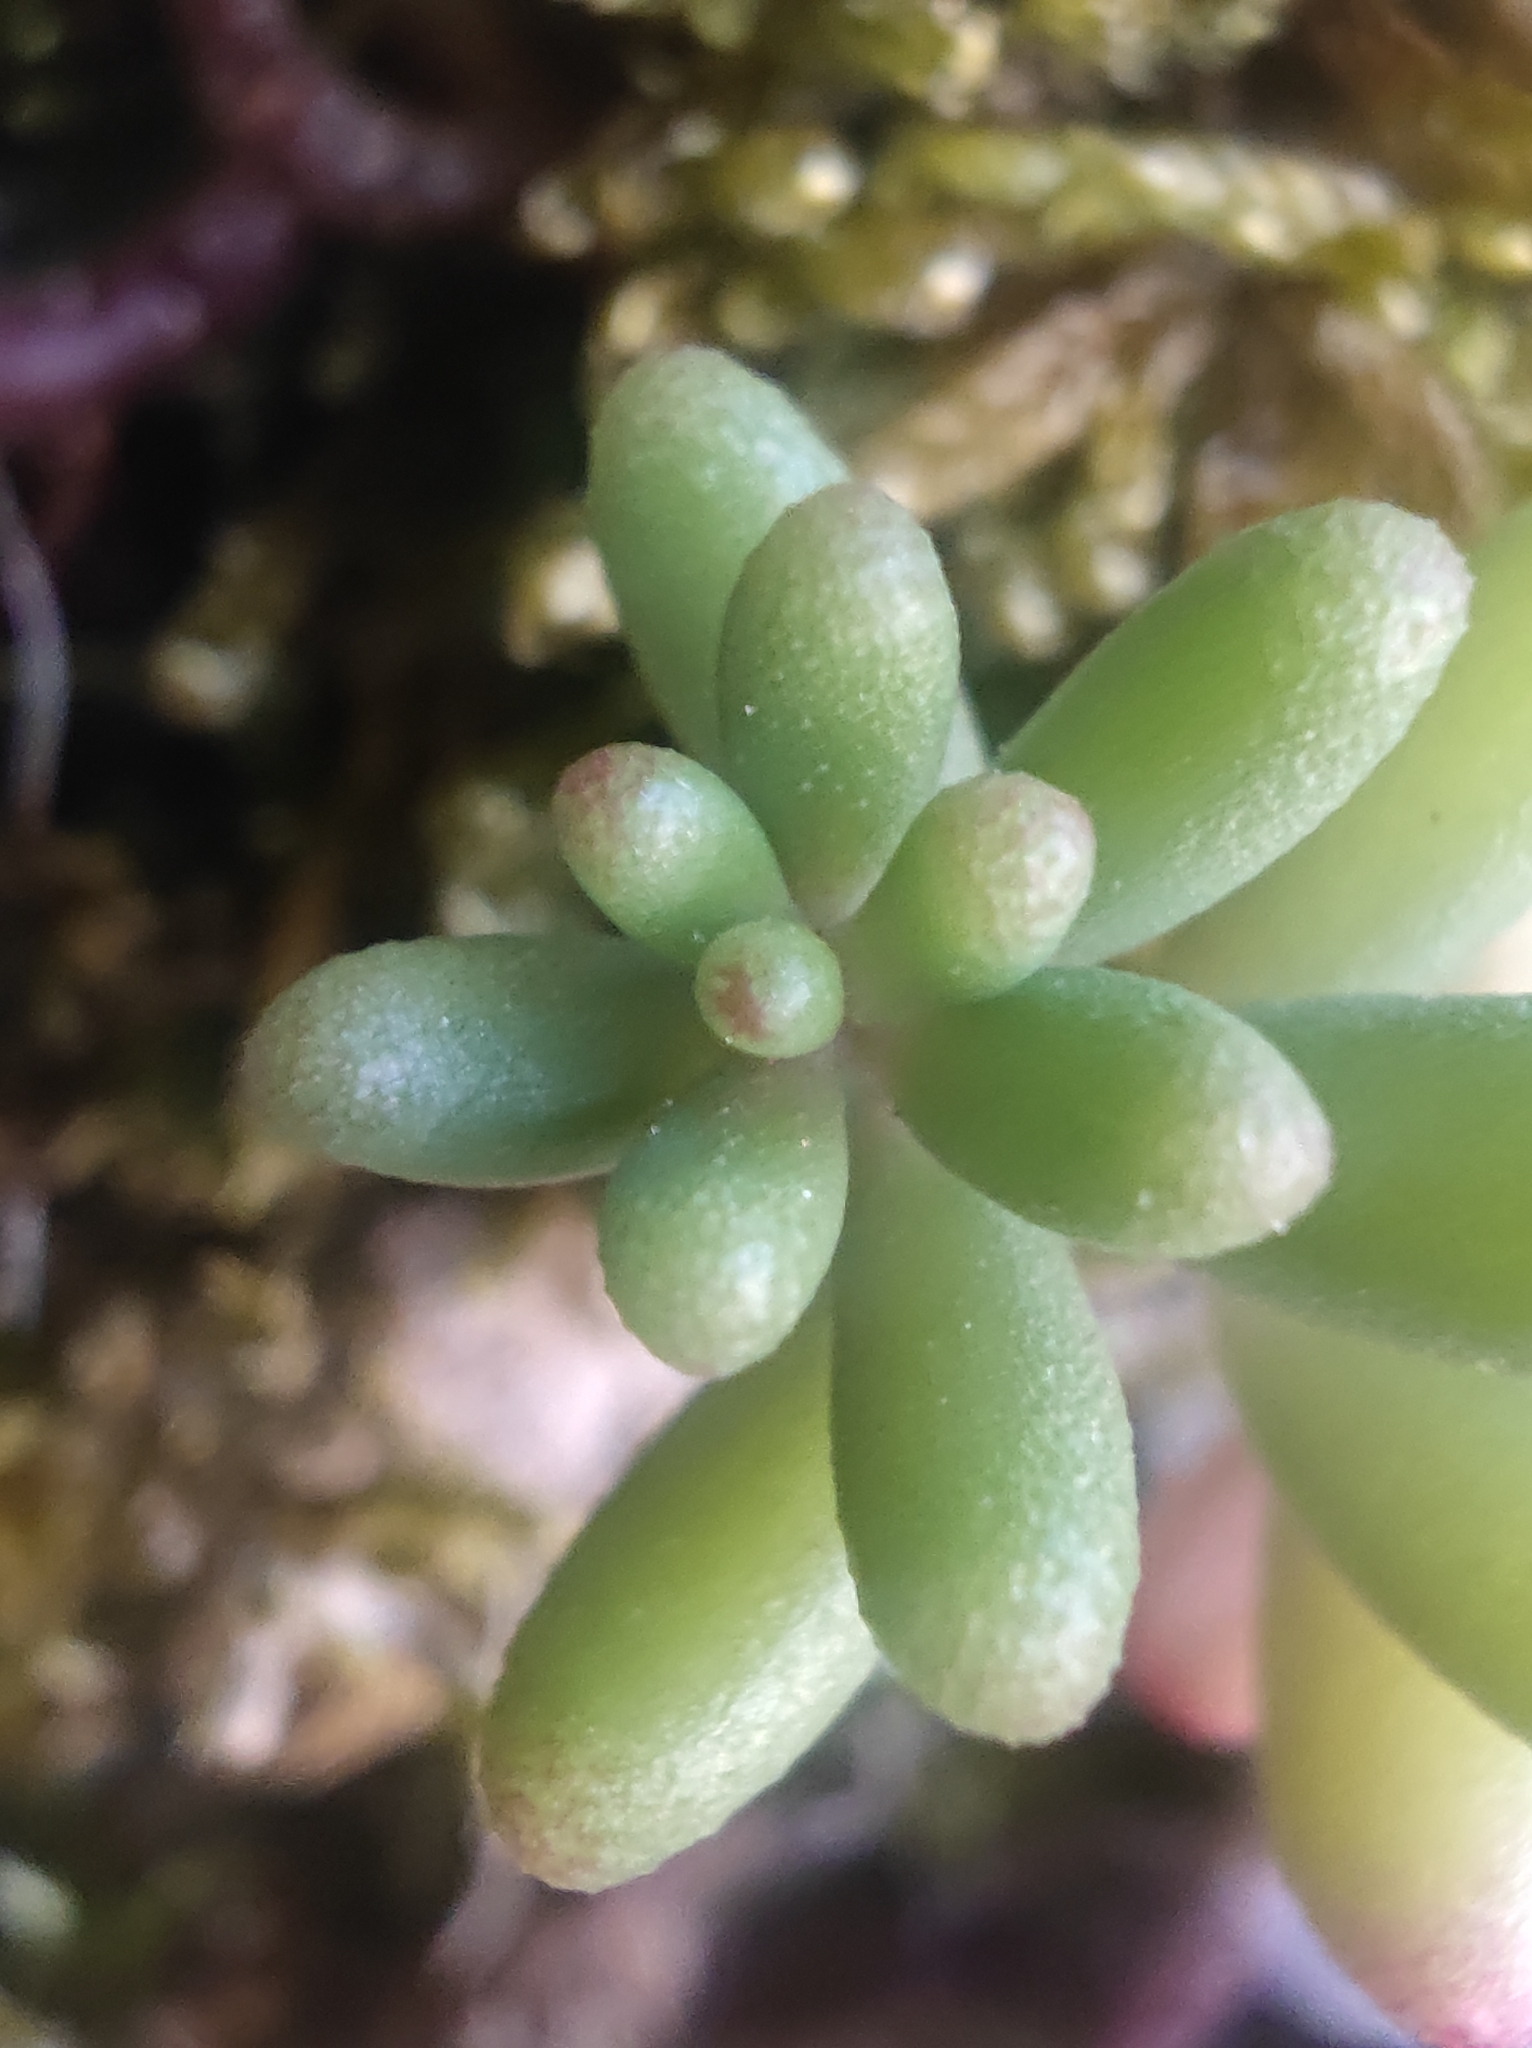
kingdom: Plantae
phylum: Tracheophyta
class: Magnoliopsida
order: Saxifragales
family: Crassulaceae
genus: Sedum
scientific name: Sedum album
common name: White stonecrop
